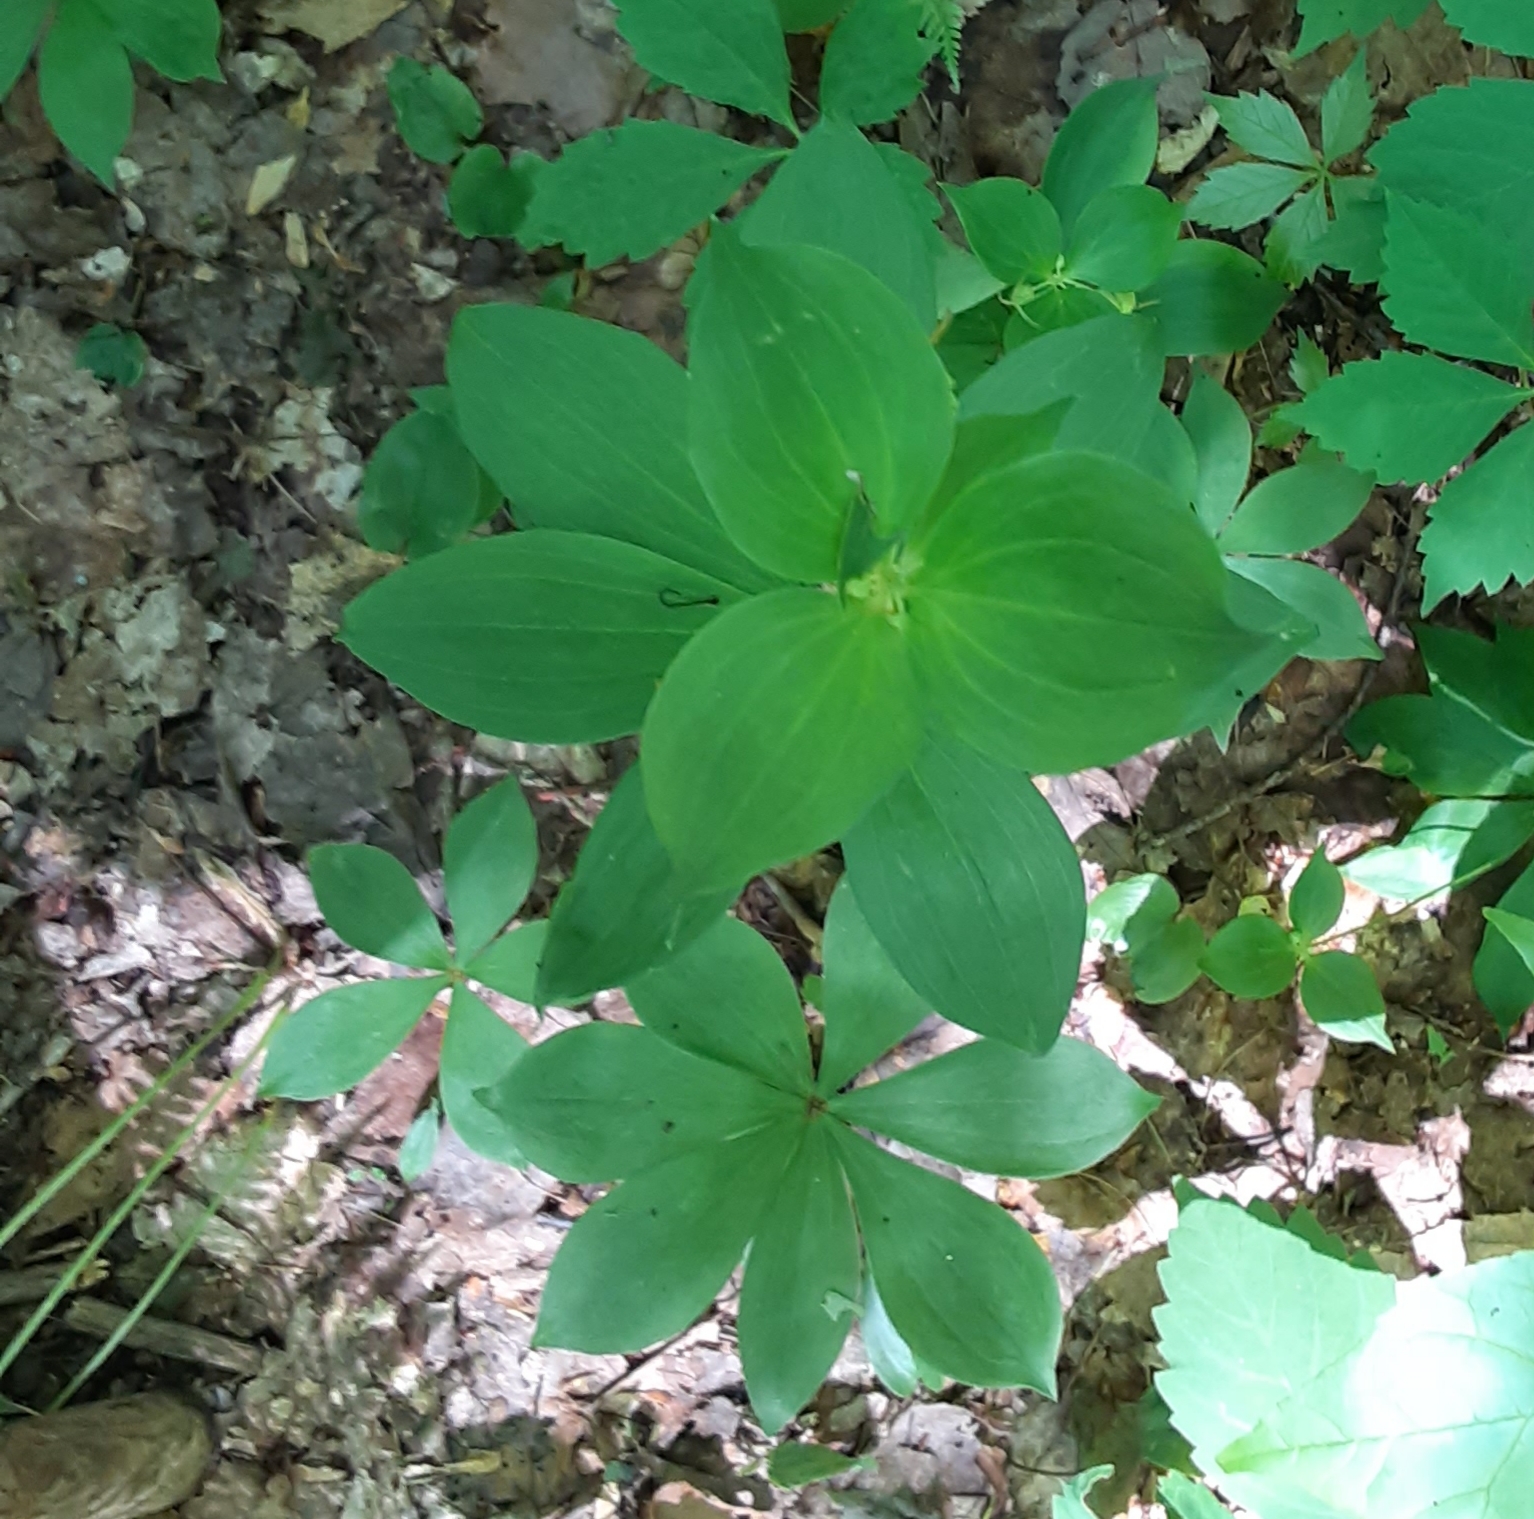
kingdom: Plantae
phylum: Tracheophyta
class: Liliopsida
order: Liliales
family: Liliaceae
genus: Medeola
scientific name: Medeola virginiana
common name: Indian cucumber-root
